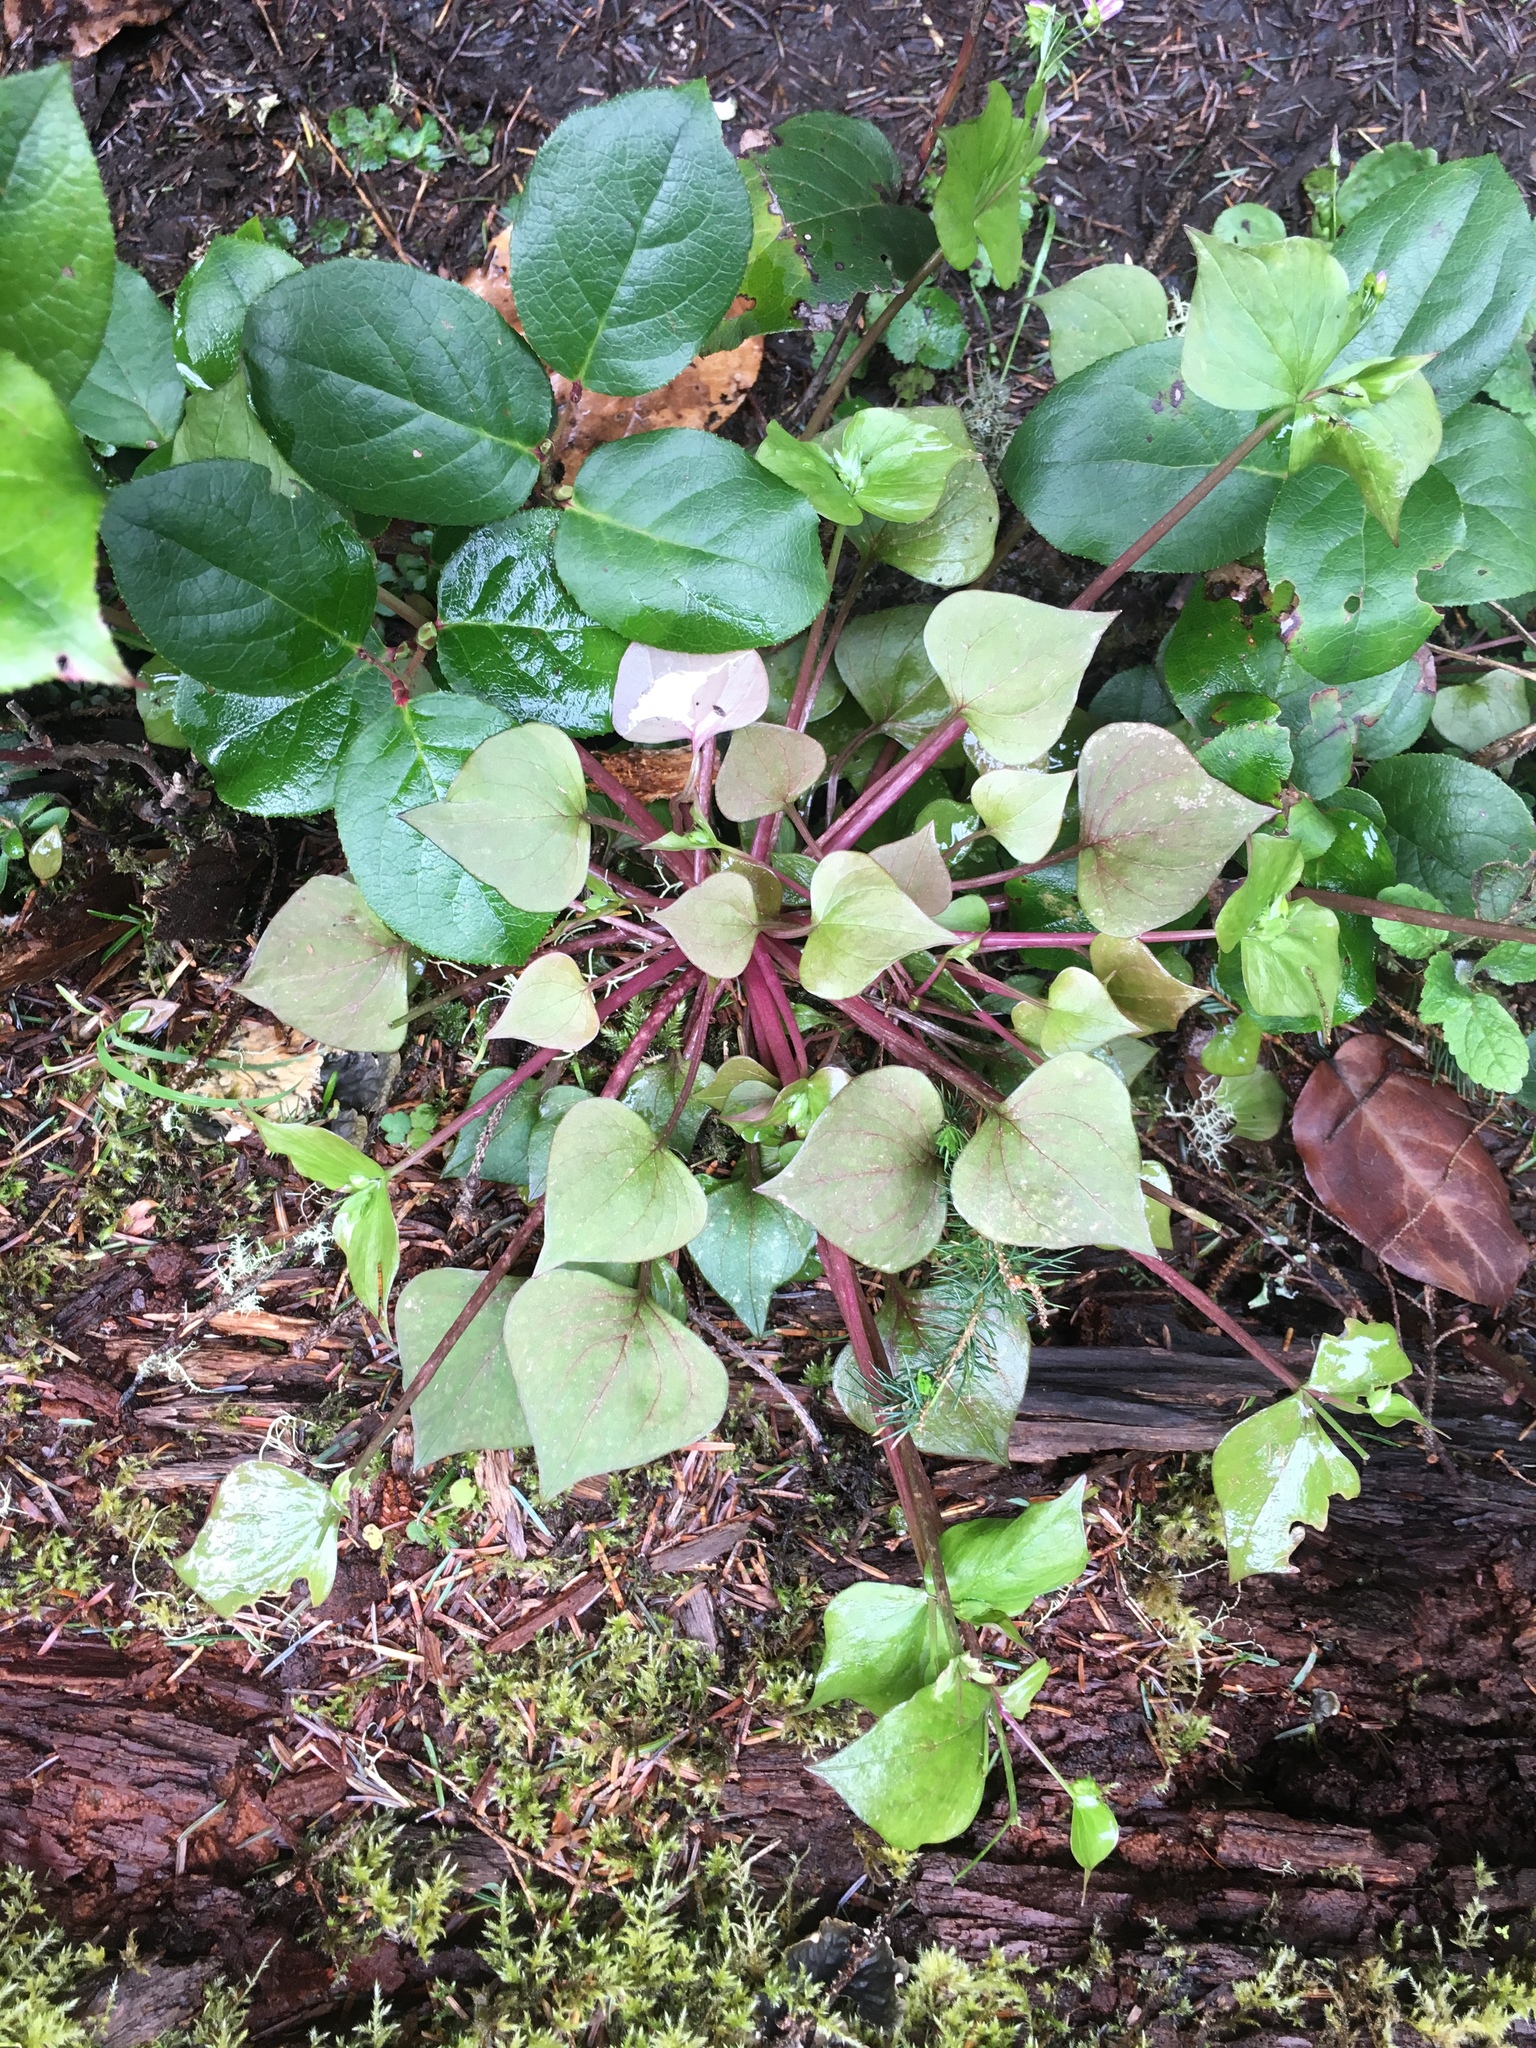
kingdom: Plantae
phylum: Tracheophyta
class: Magnoliopsida
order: Caryophyllales
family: Montiaceae
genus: Claytonia
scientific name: Claytonia sibirica
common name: Pink purslane
